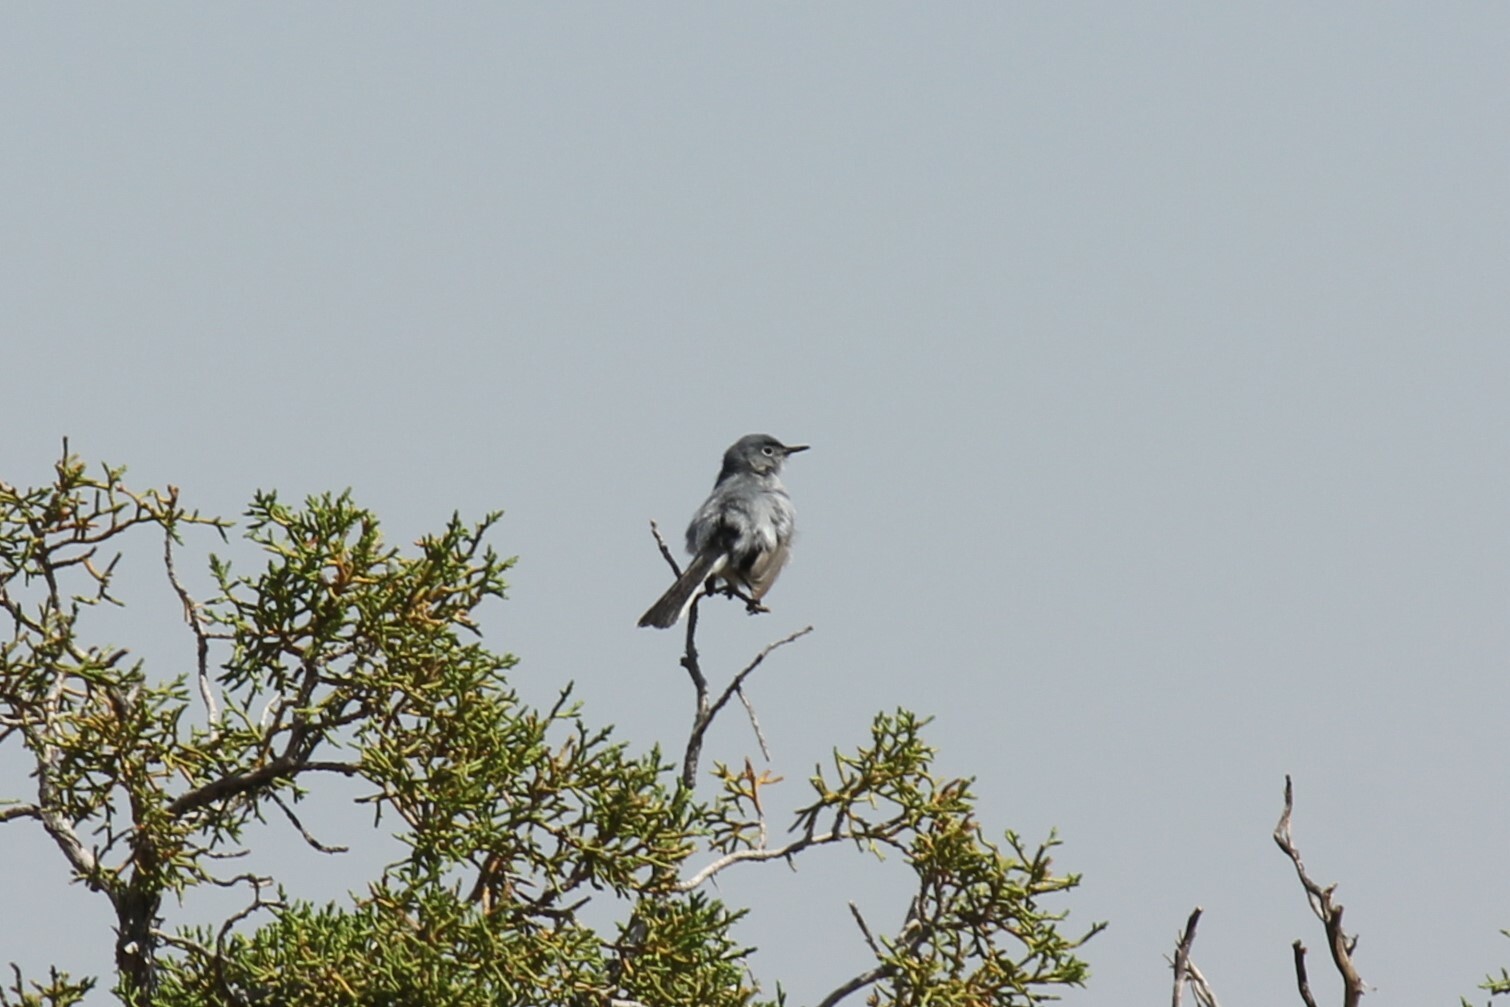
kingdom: Animalia
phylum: Chordata
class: Aves
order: Passeriformes
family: Polioptilidae
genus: Polioptila
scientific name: Polioptila caerulea
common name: Blue-gray gnatcatcher
